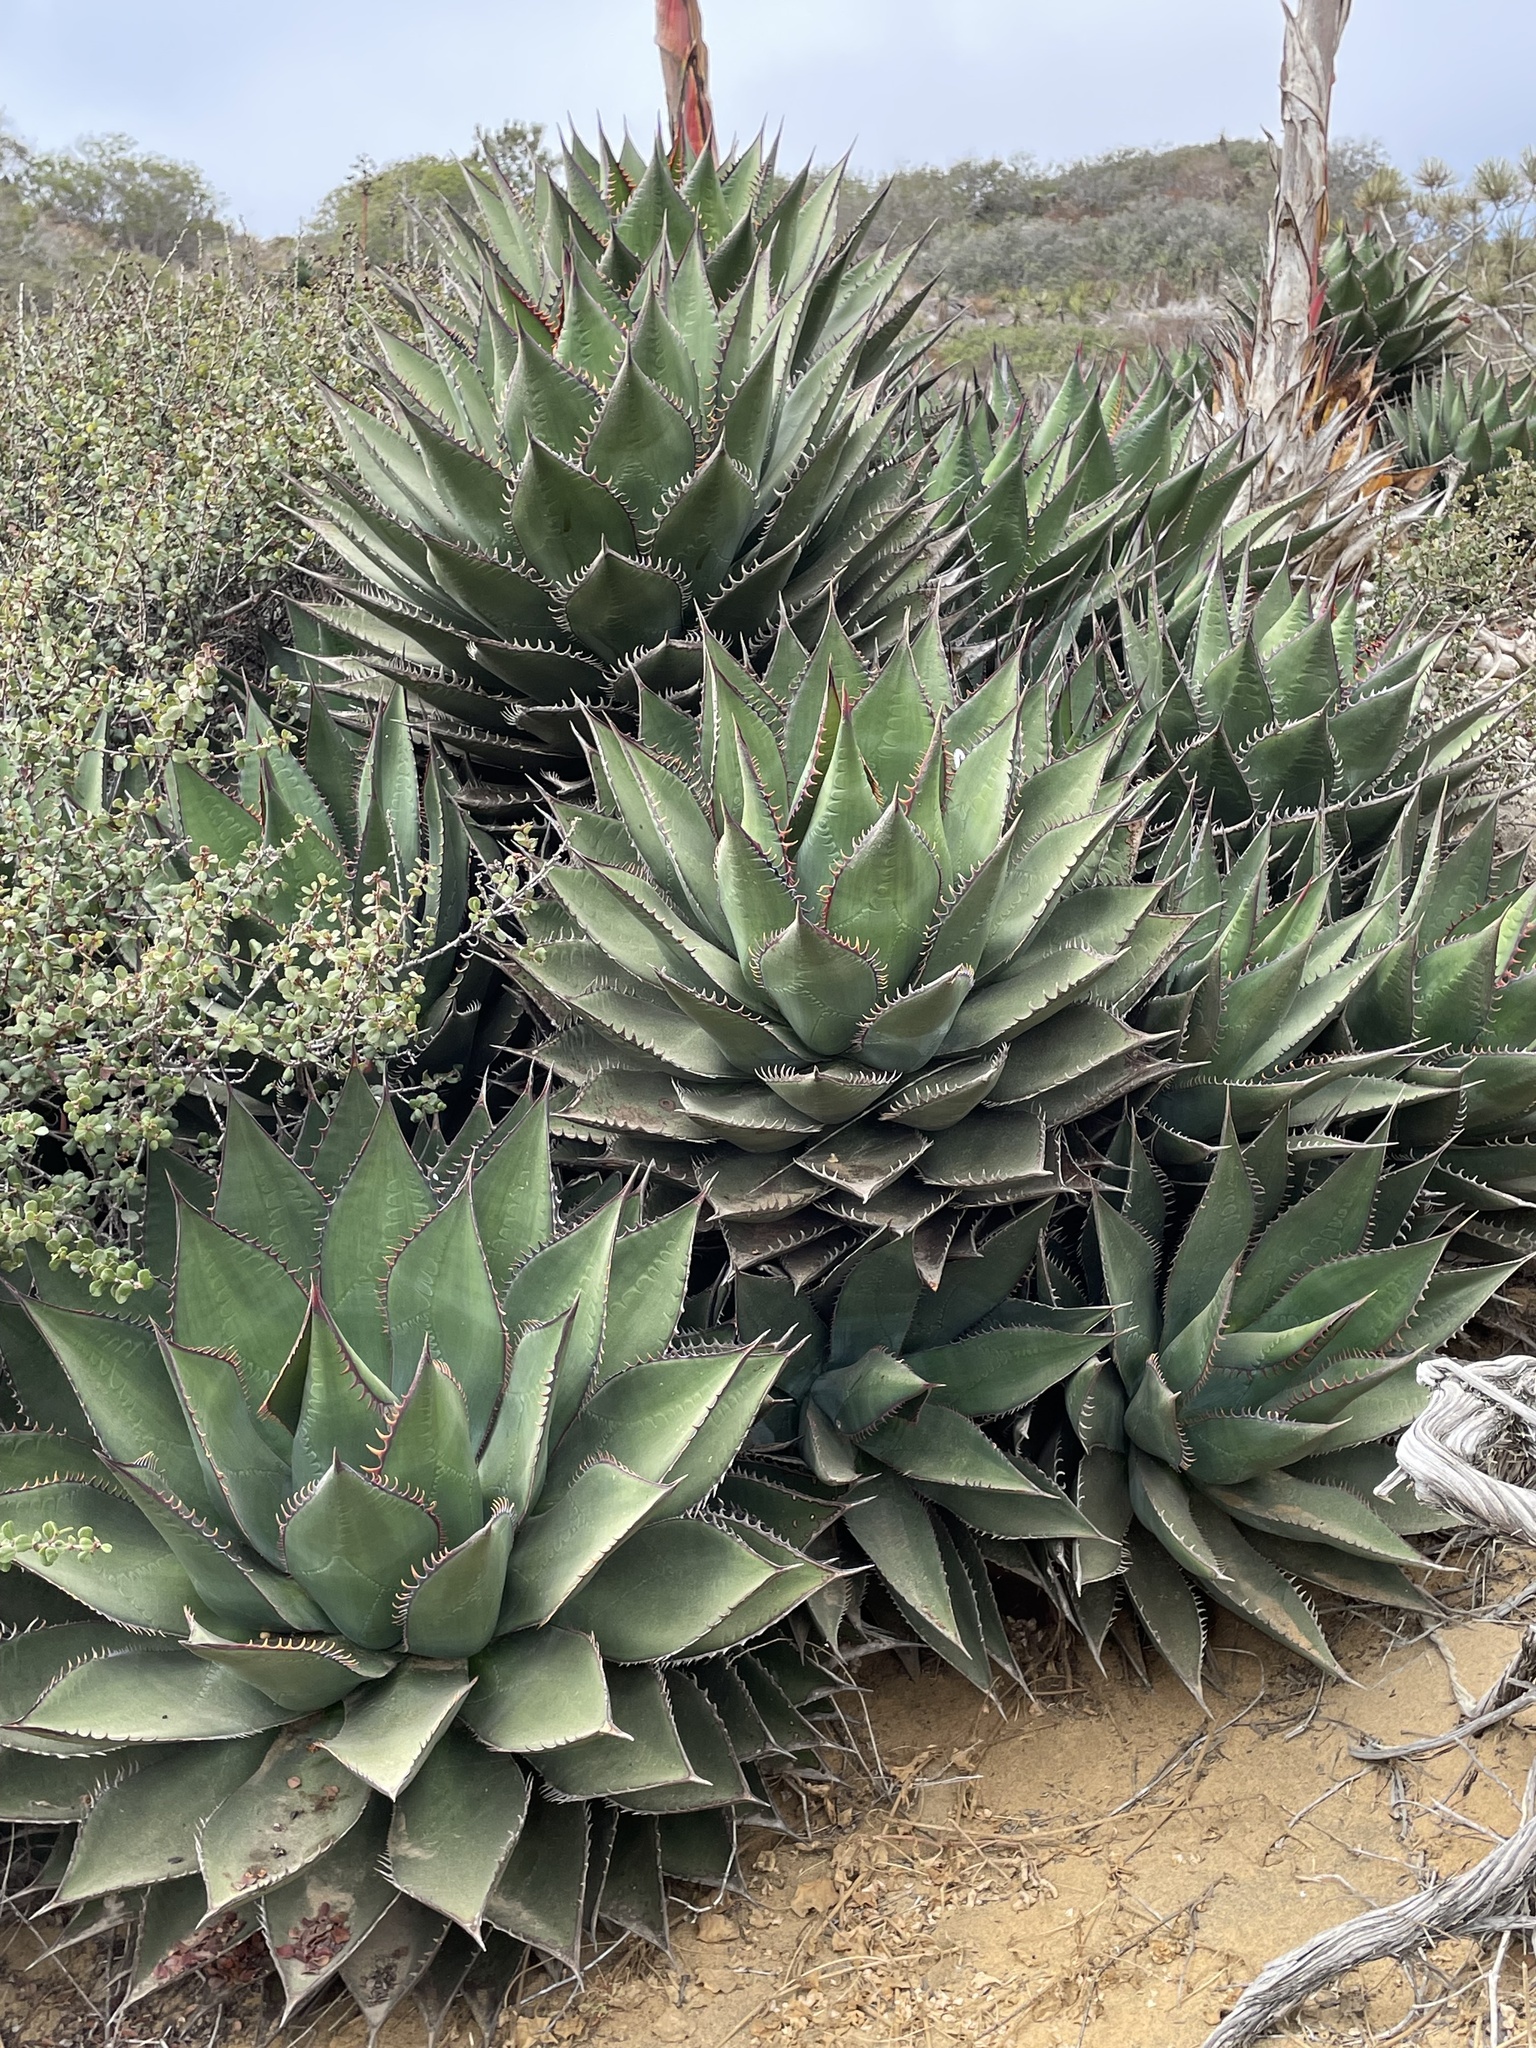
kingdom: Plantae
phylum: Tracheophyta
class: Liliopsida
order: Asparagales
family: Asparagaceae
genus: Agave
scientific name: Agave shawii
